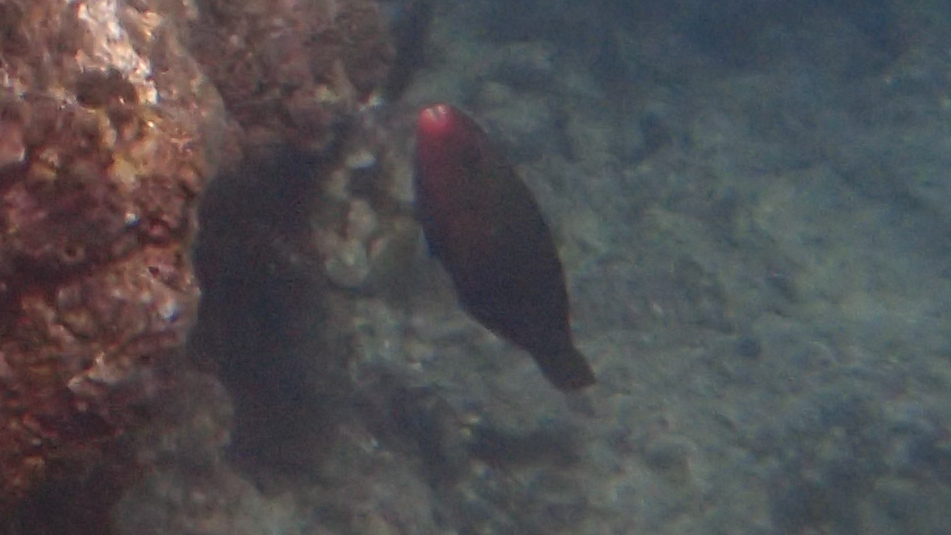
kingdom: Animalia
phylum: Chordata
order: Perciformes
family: Scaridae
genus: Chlorurus
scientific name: Chlorurus spilurus
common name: Bullethead parrotfish
